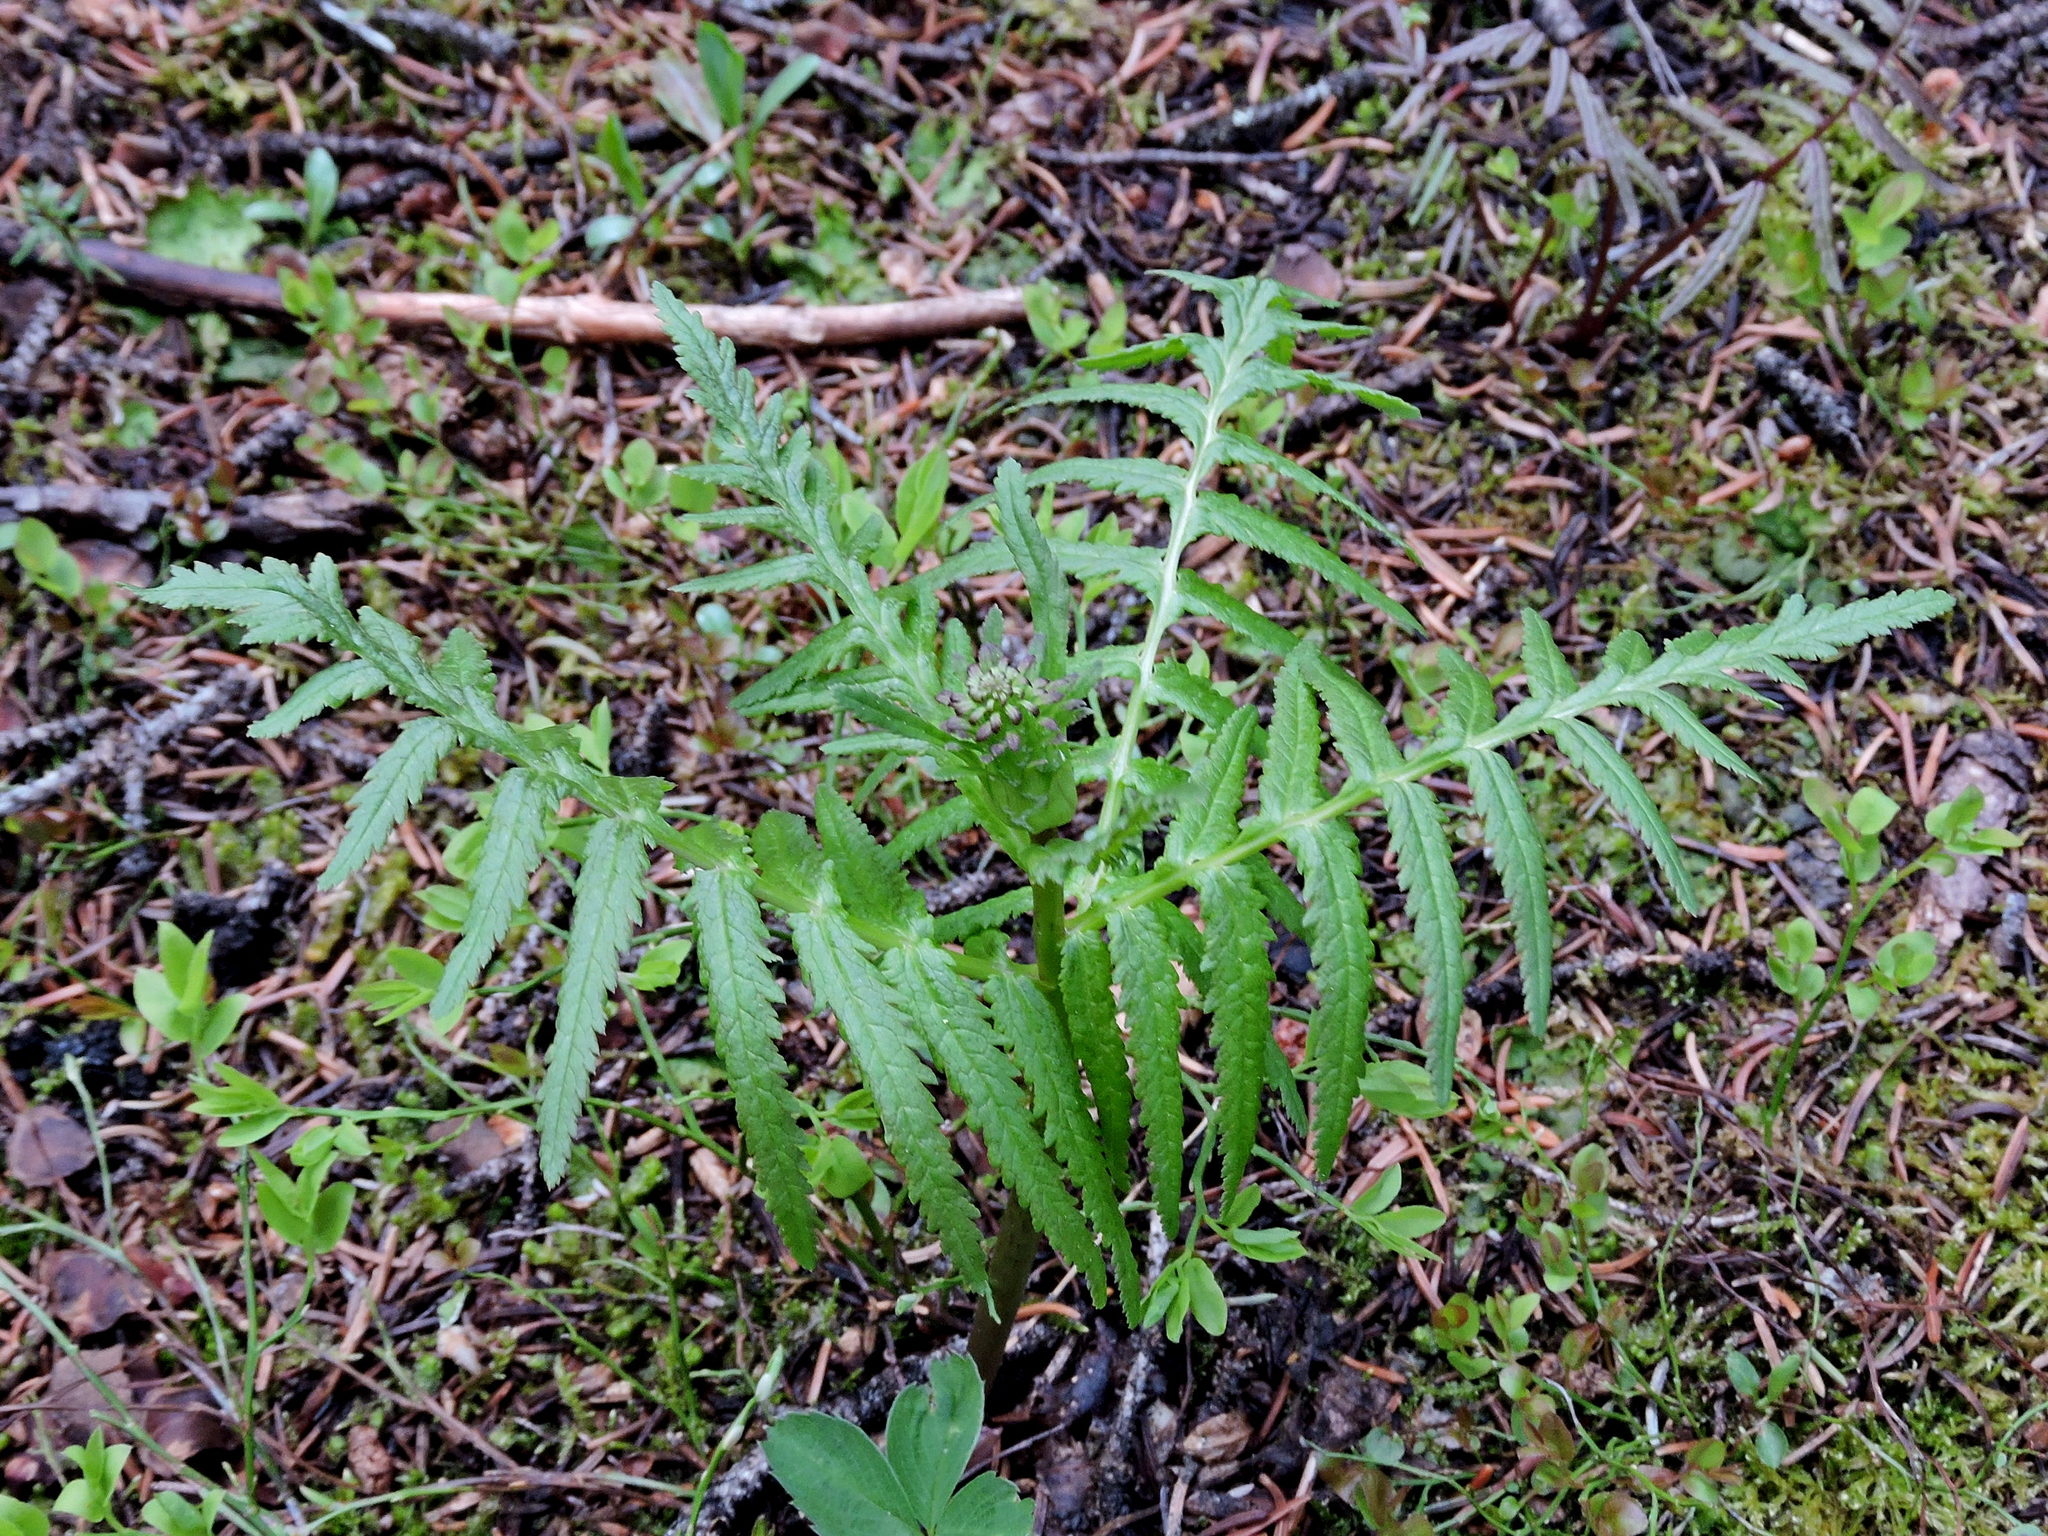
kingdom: Plantae
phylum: Tracheophyta
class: Magnoliopsida
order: Lamiales
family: Orobanchaceae
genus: Pedicularis
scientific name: Pedicularis bracteosa
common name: Bracted lousewort
